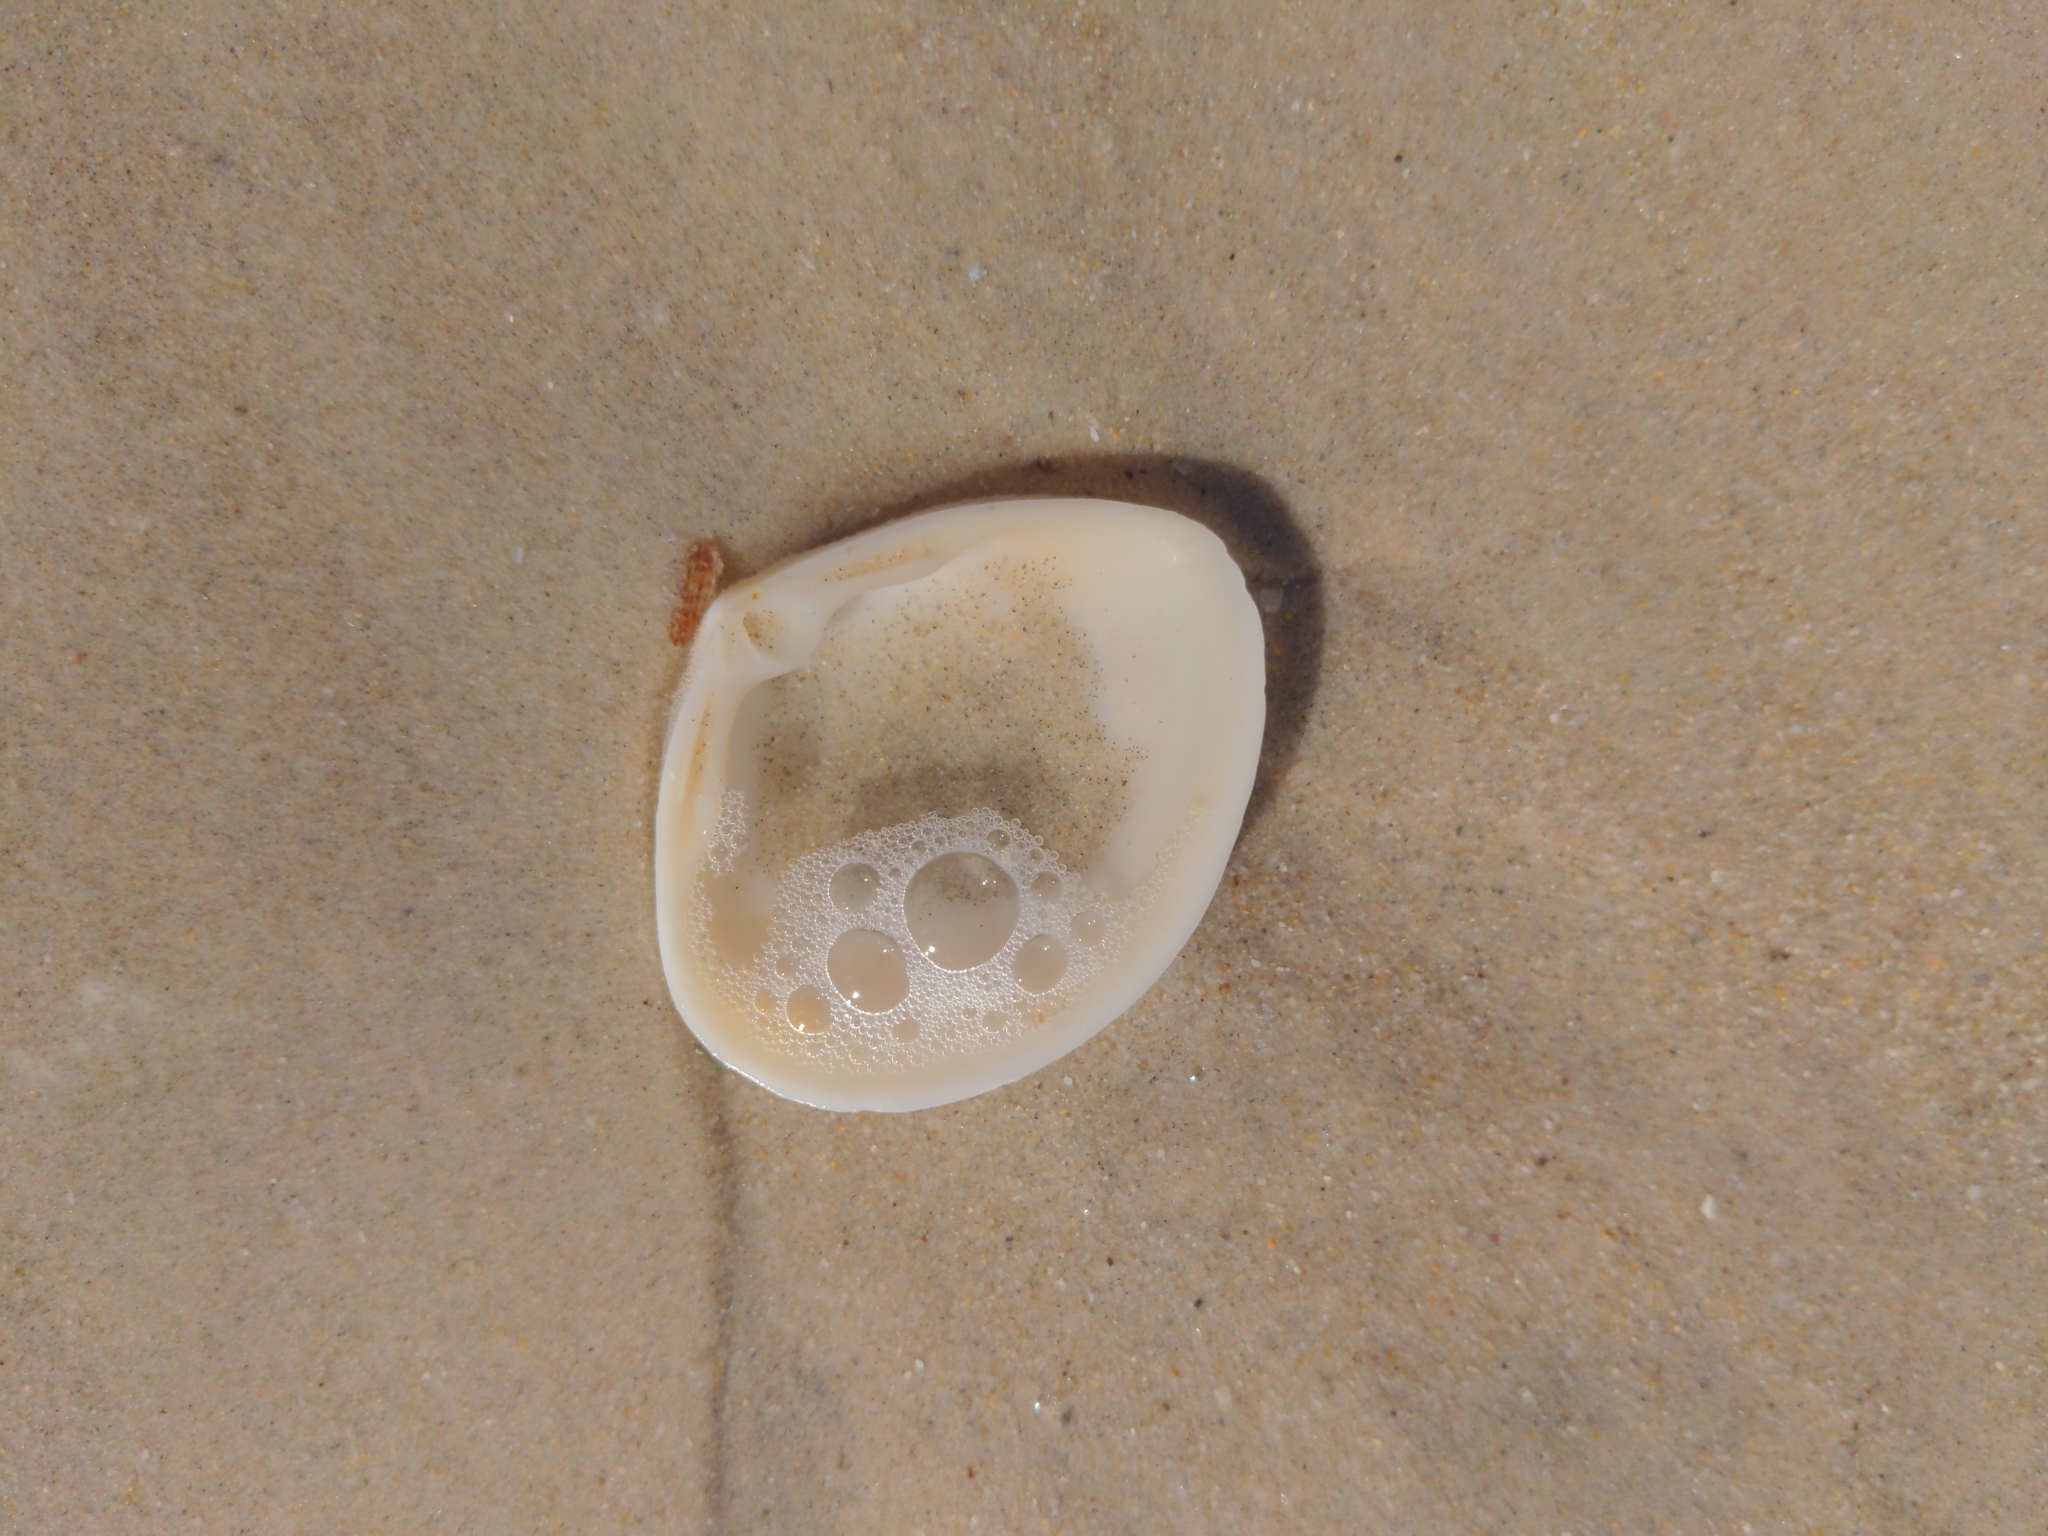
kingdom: Animalia
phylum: Mollusca
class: Bivalvia
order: Venerida
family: Mactridae
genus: Mactra
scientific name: Mactra australis
